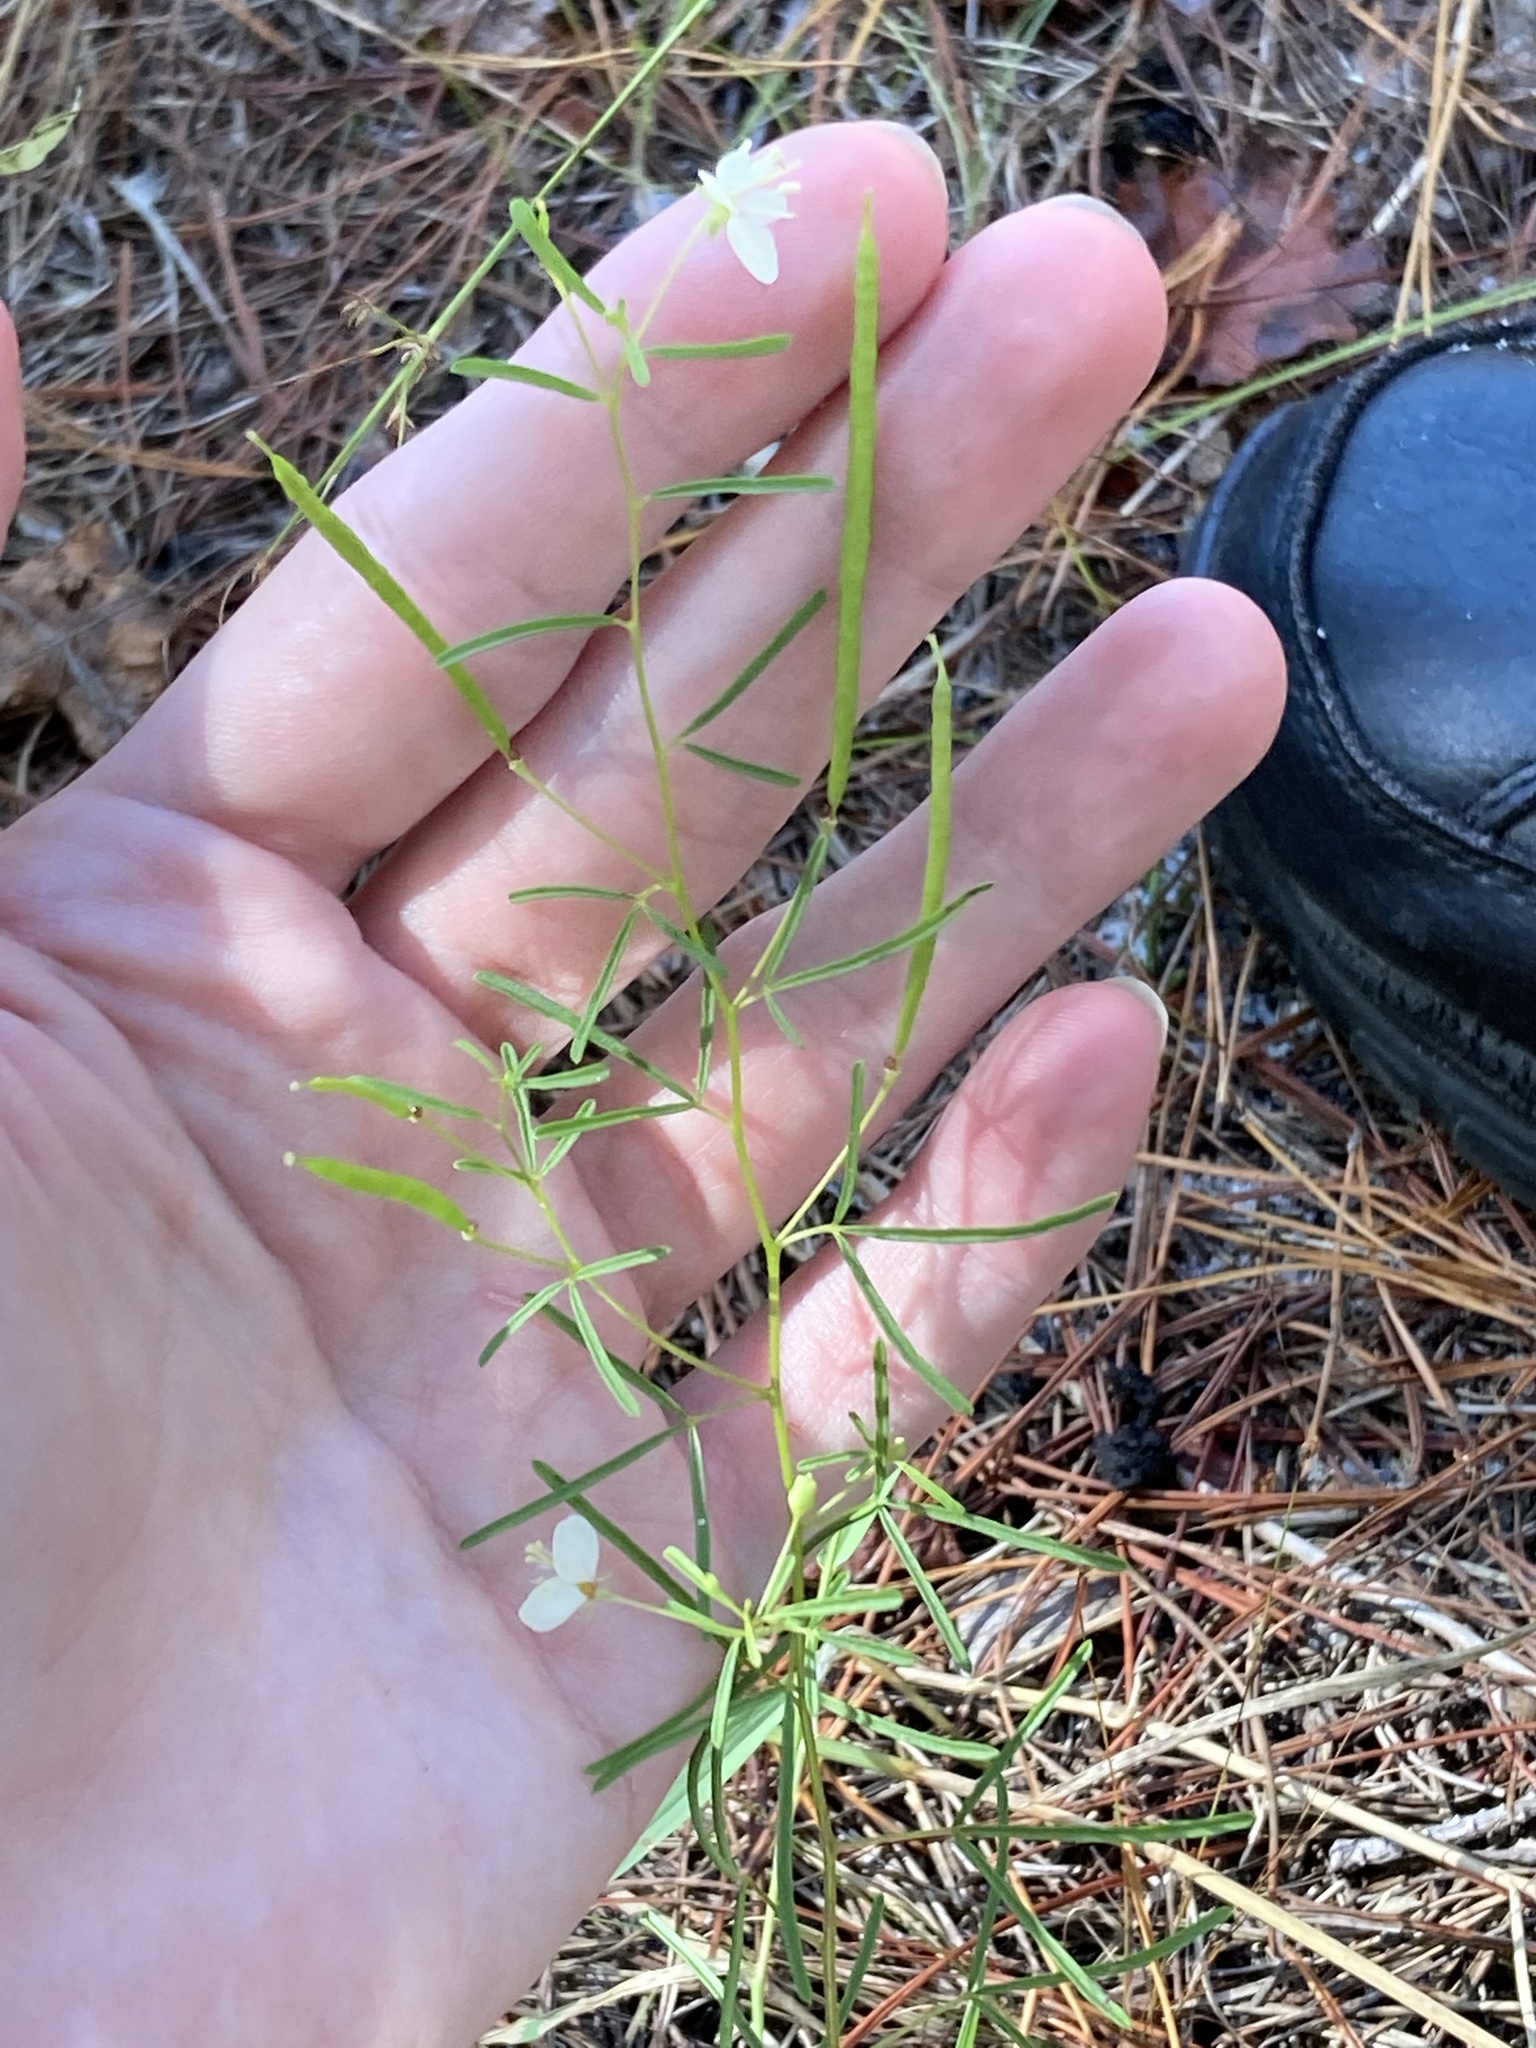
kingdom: Plantae
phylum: Tracheophyta
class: Magnoliopsida
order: Brassicales
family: Cleomaceae
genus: Polanisia
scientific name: Polanisia tenuifolia
